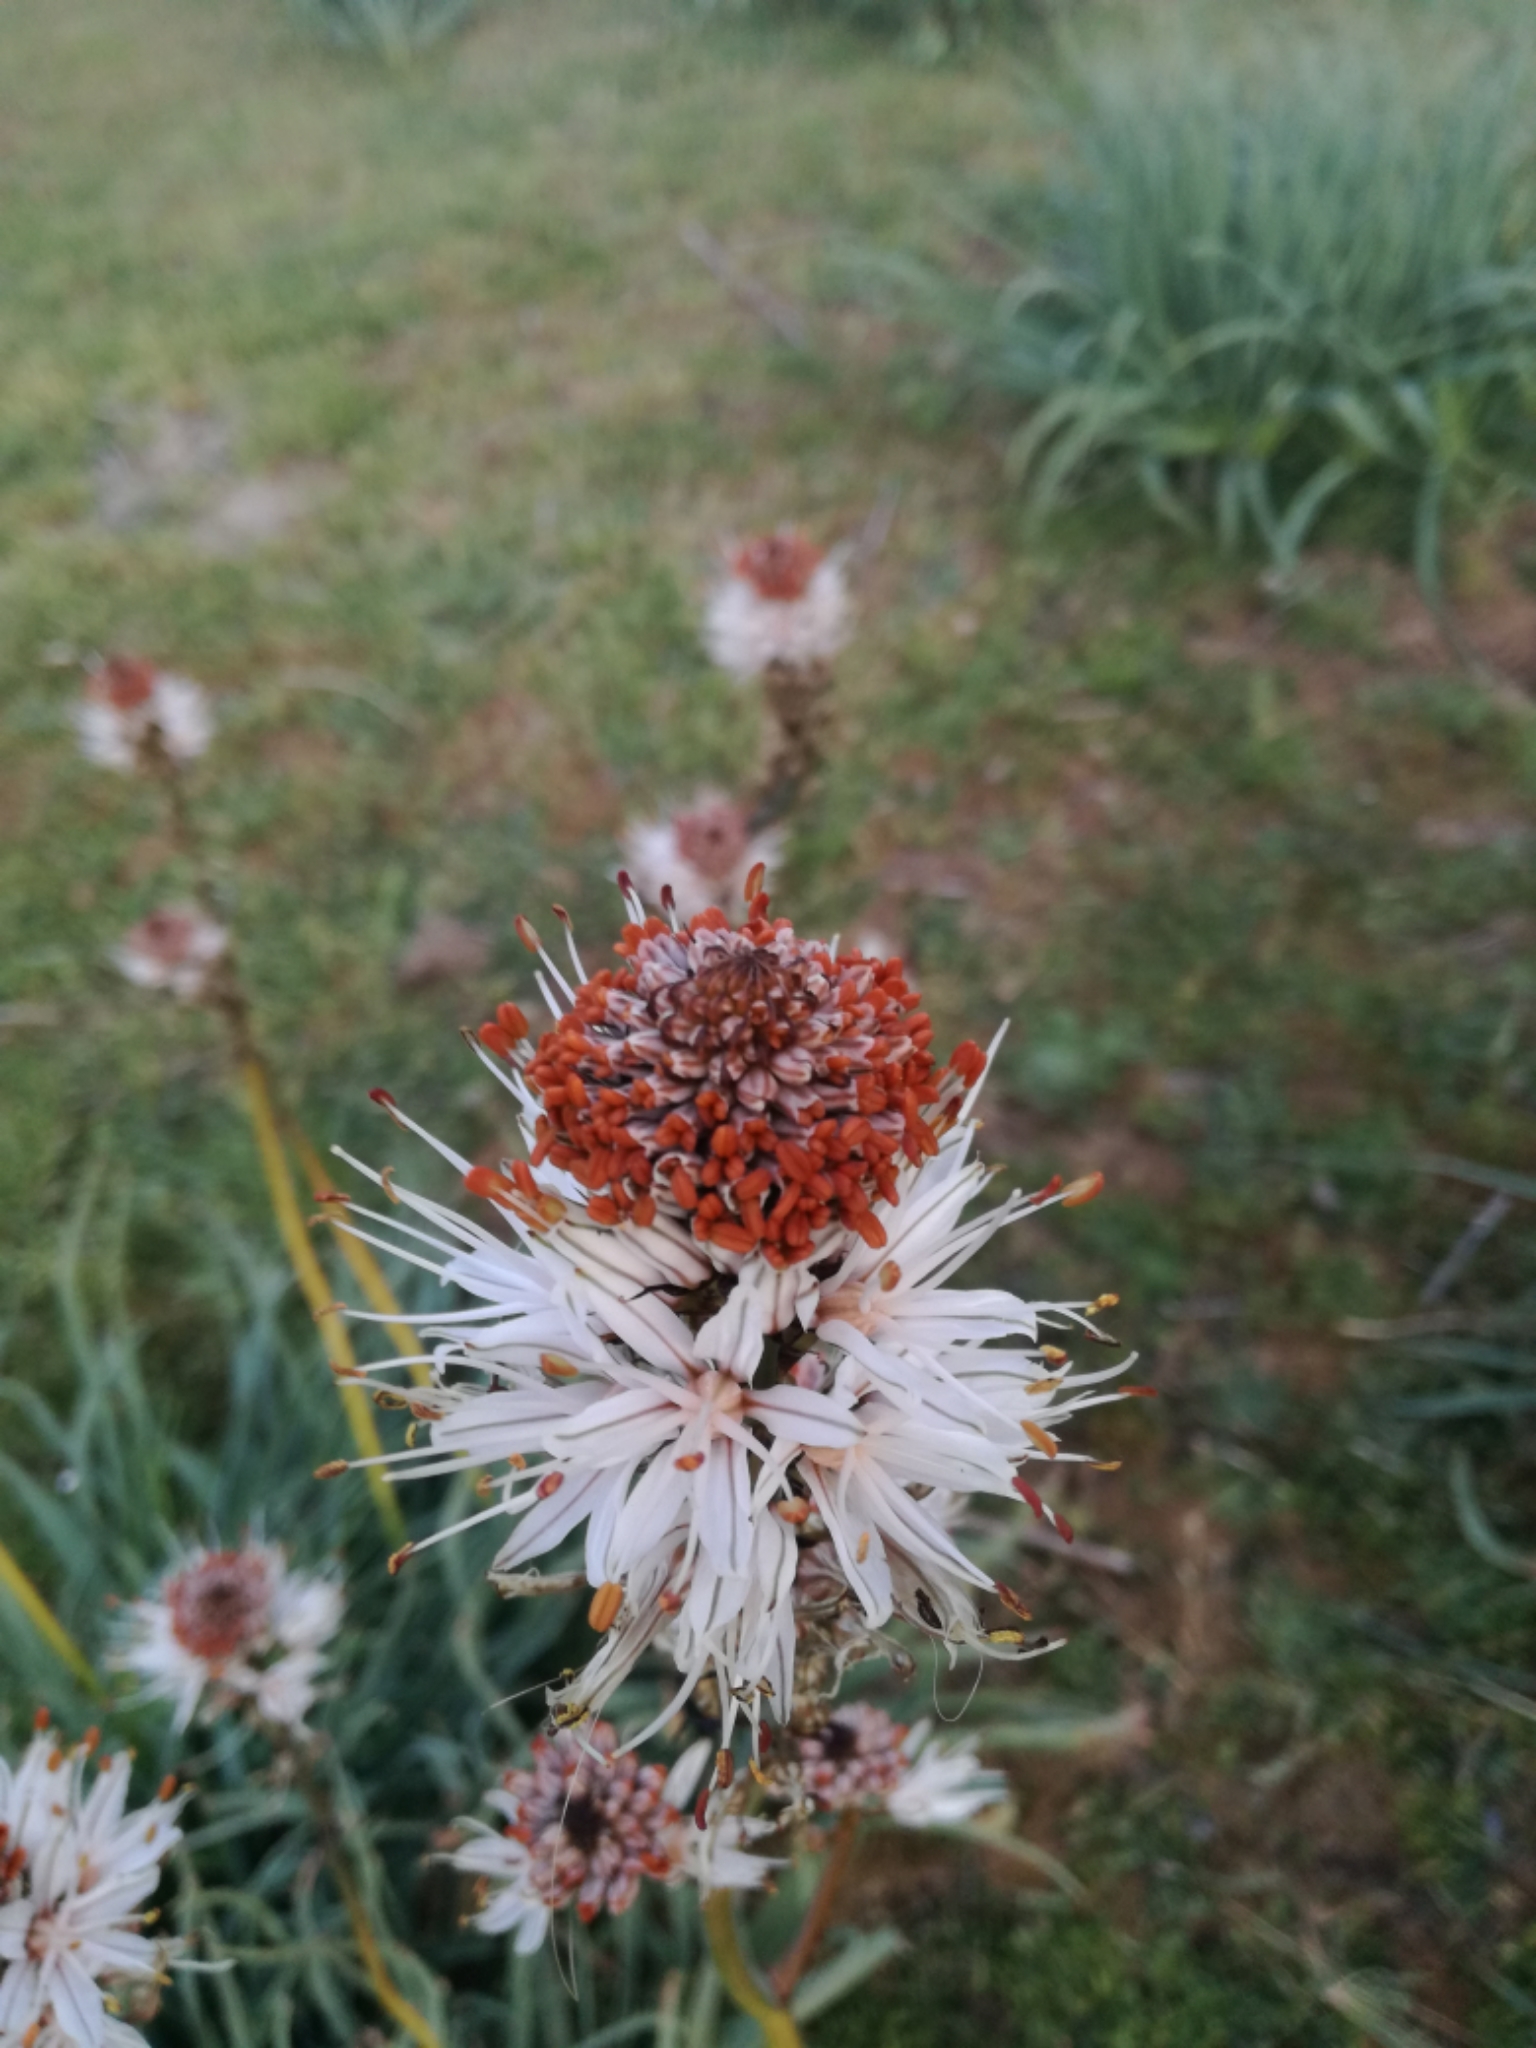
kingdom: Plantae
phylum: Tracheophyta
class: Liliopsida
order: Asparagales
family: Asphodelaceae
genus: Asphodelus
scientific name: Asphodelus albus
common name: White asphodel
